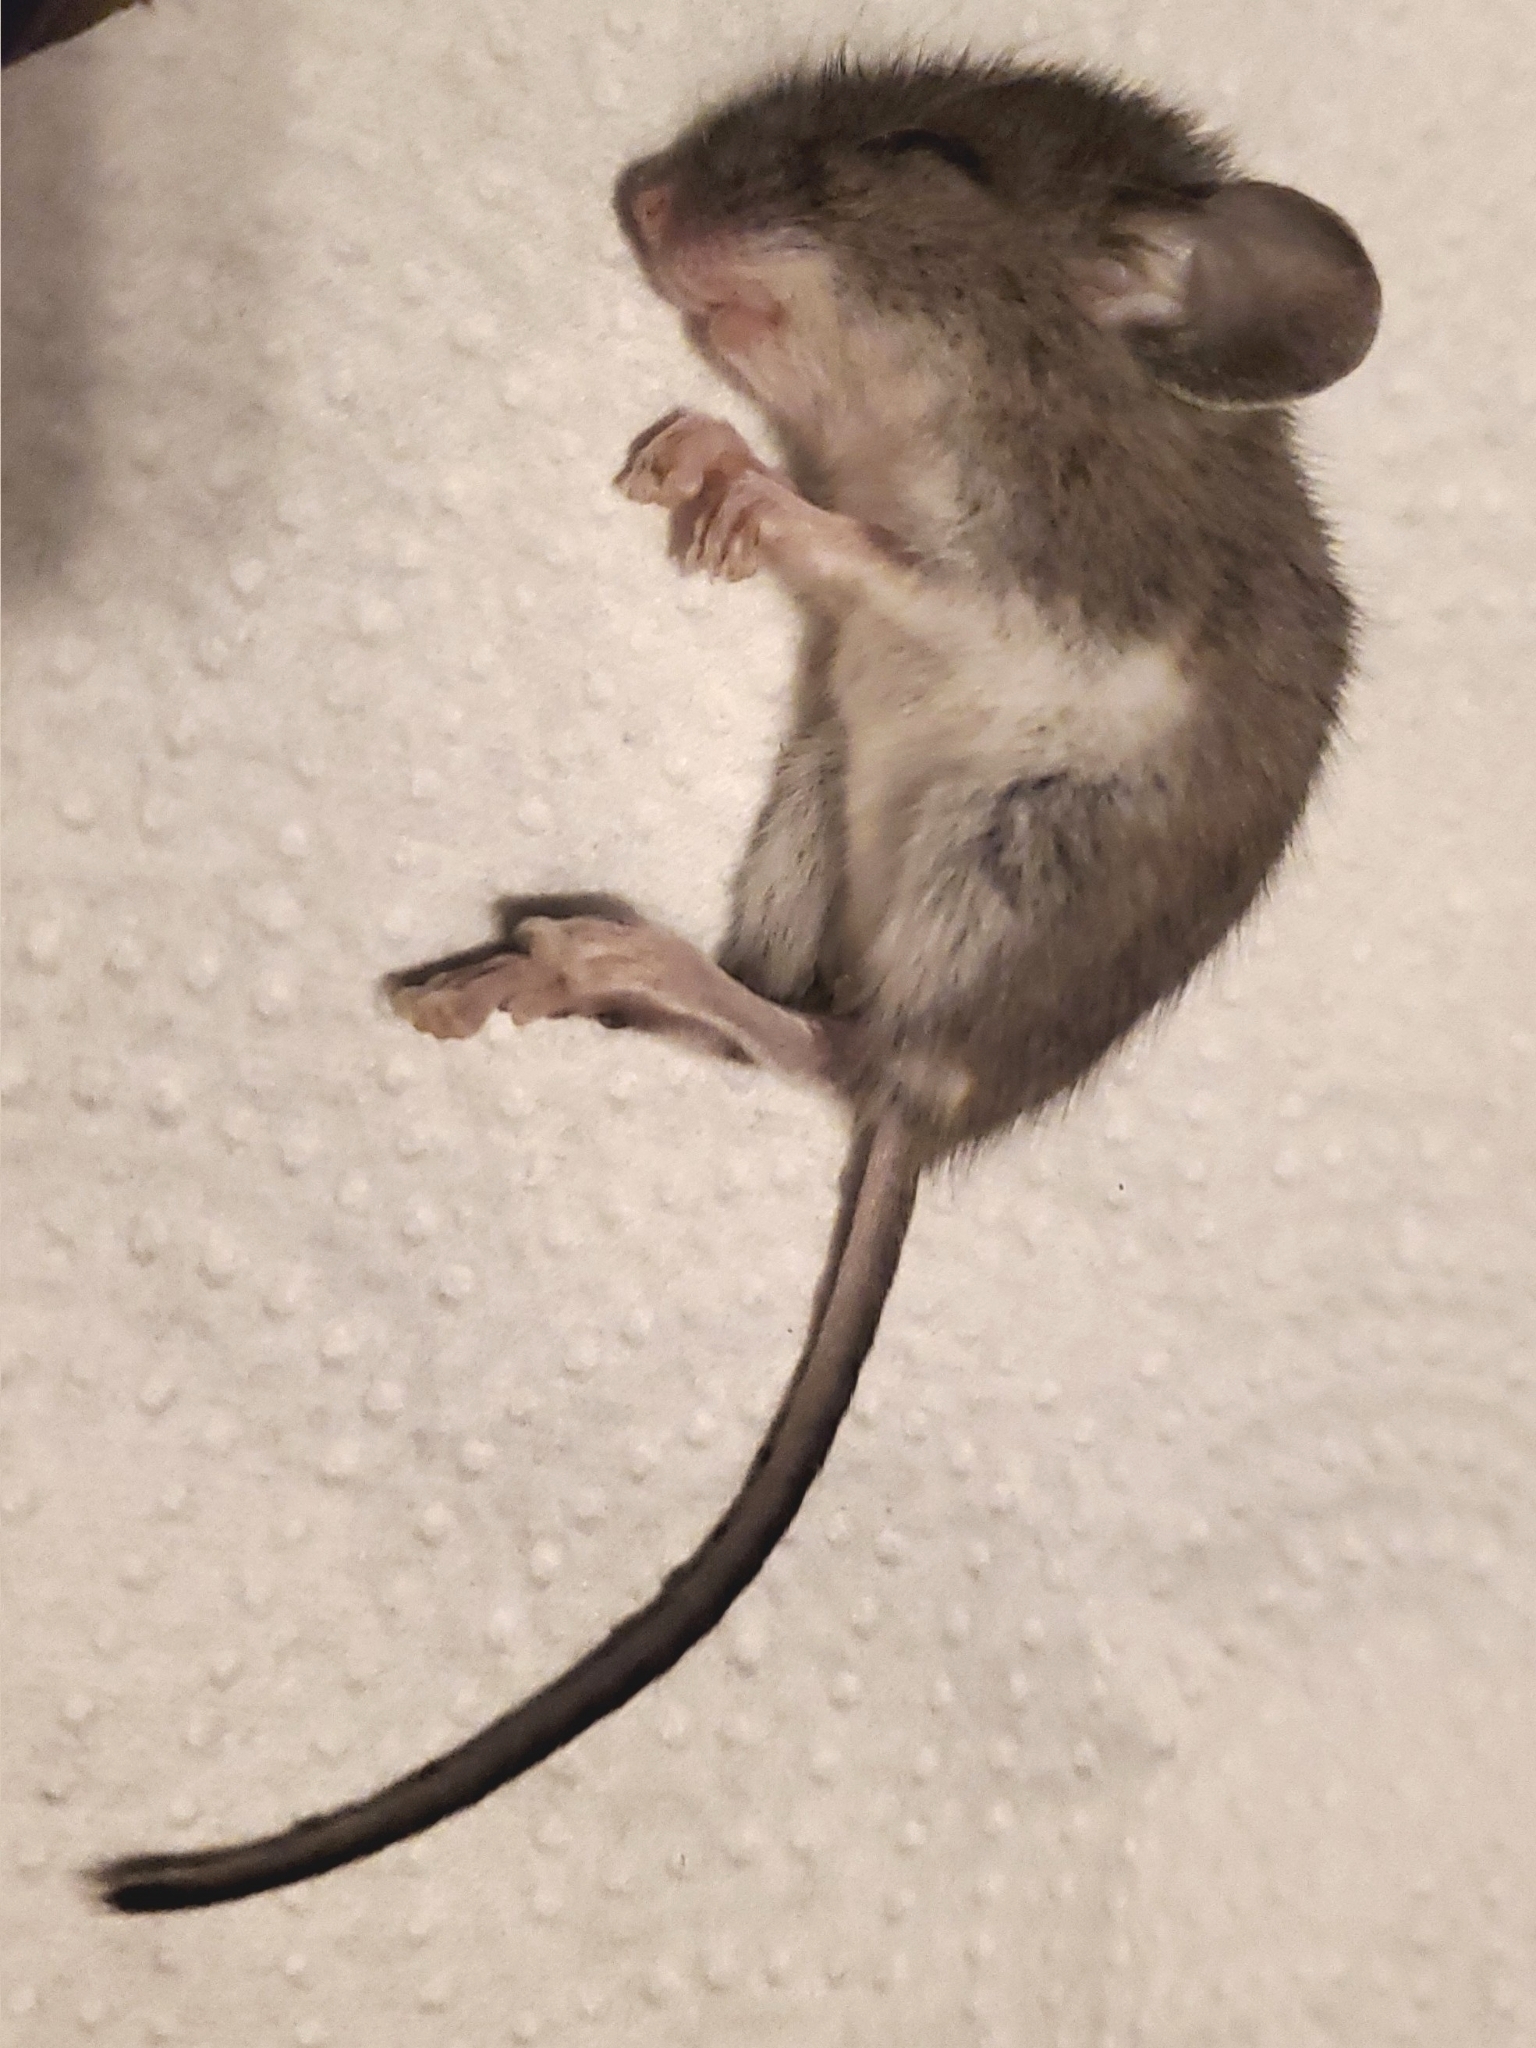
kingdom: Animalia
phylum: Chordata
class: Mammalia
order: Rodentia
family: Cricetidae
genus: Peromyscus
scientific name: Peromyscus leucopus
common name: White-footed deermouse
